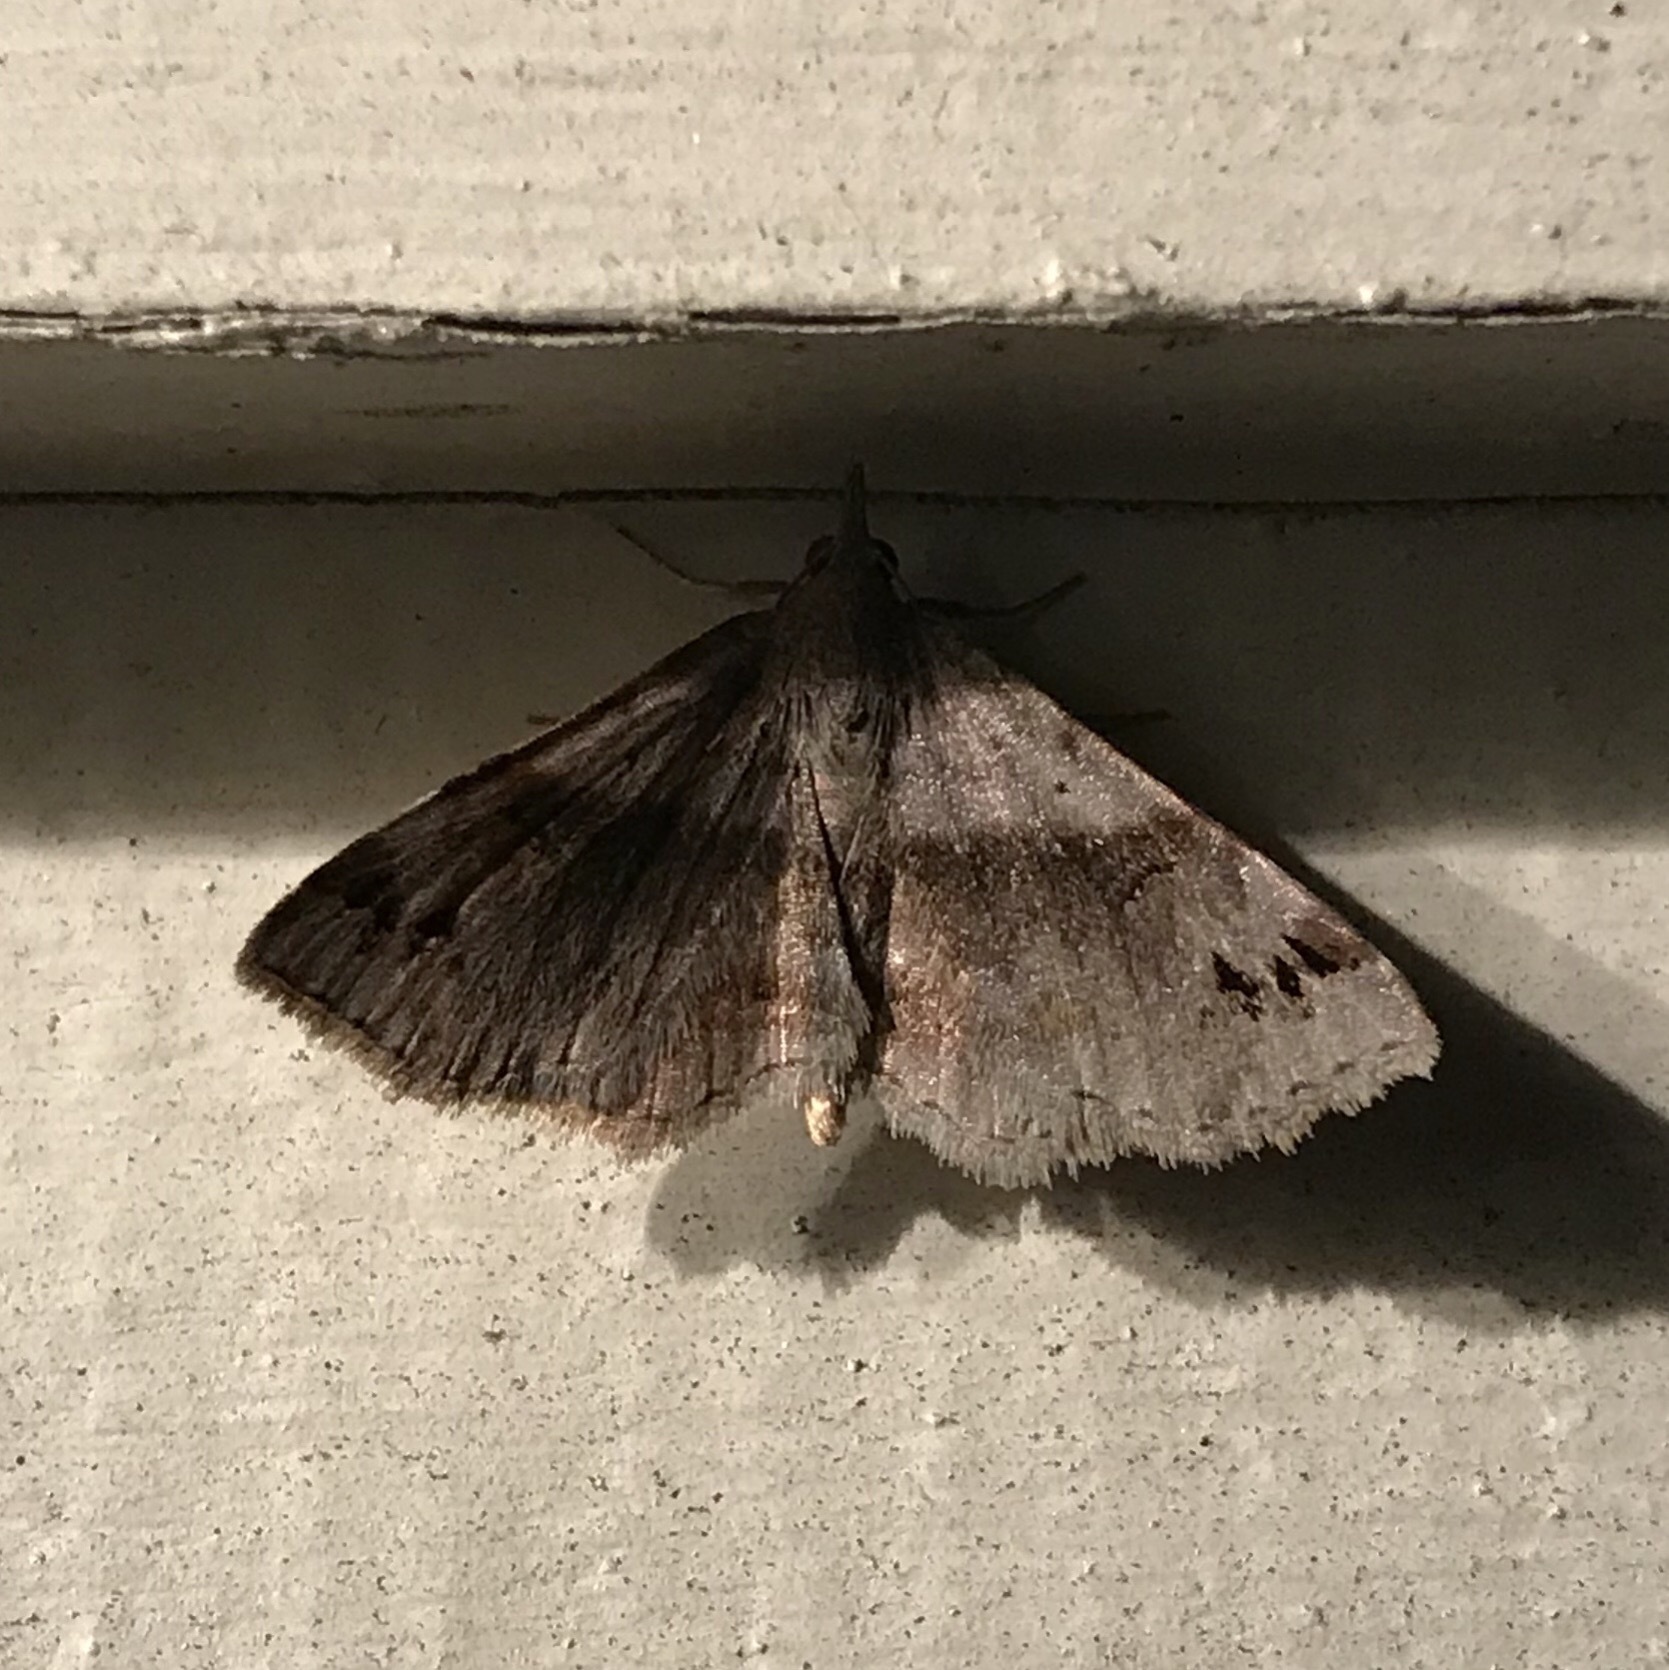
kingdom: Animalia
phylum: Arthropoda
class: Insecta
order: Lepidoptera
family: Erebidae
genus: Spargaloma
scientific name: Spargaloma sexpunctata
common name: Six-spotted gray
